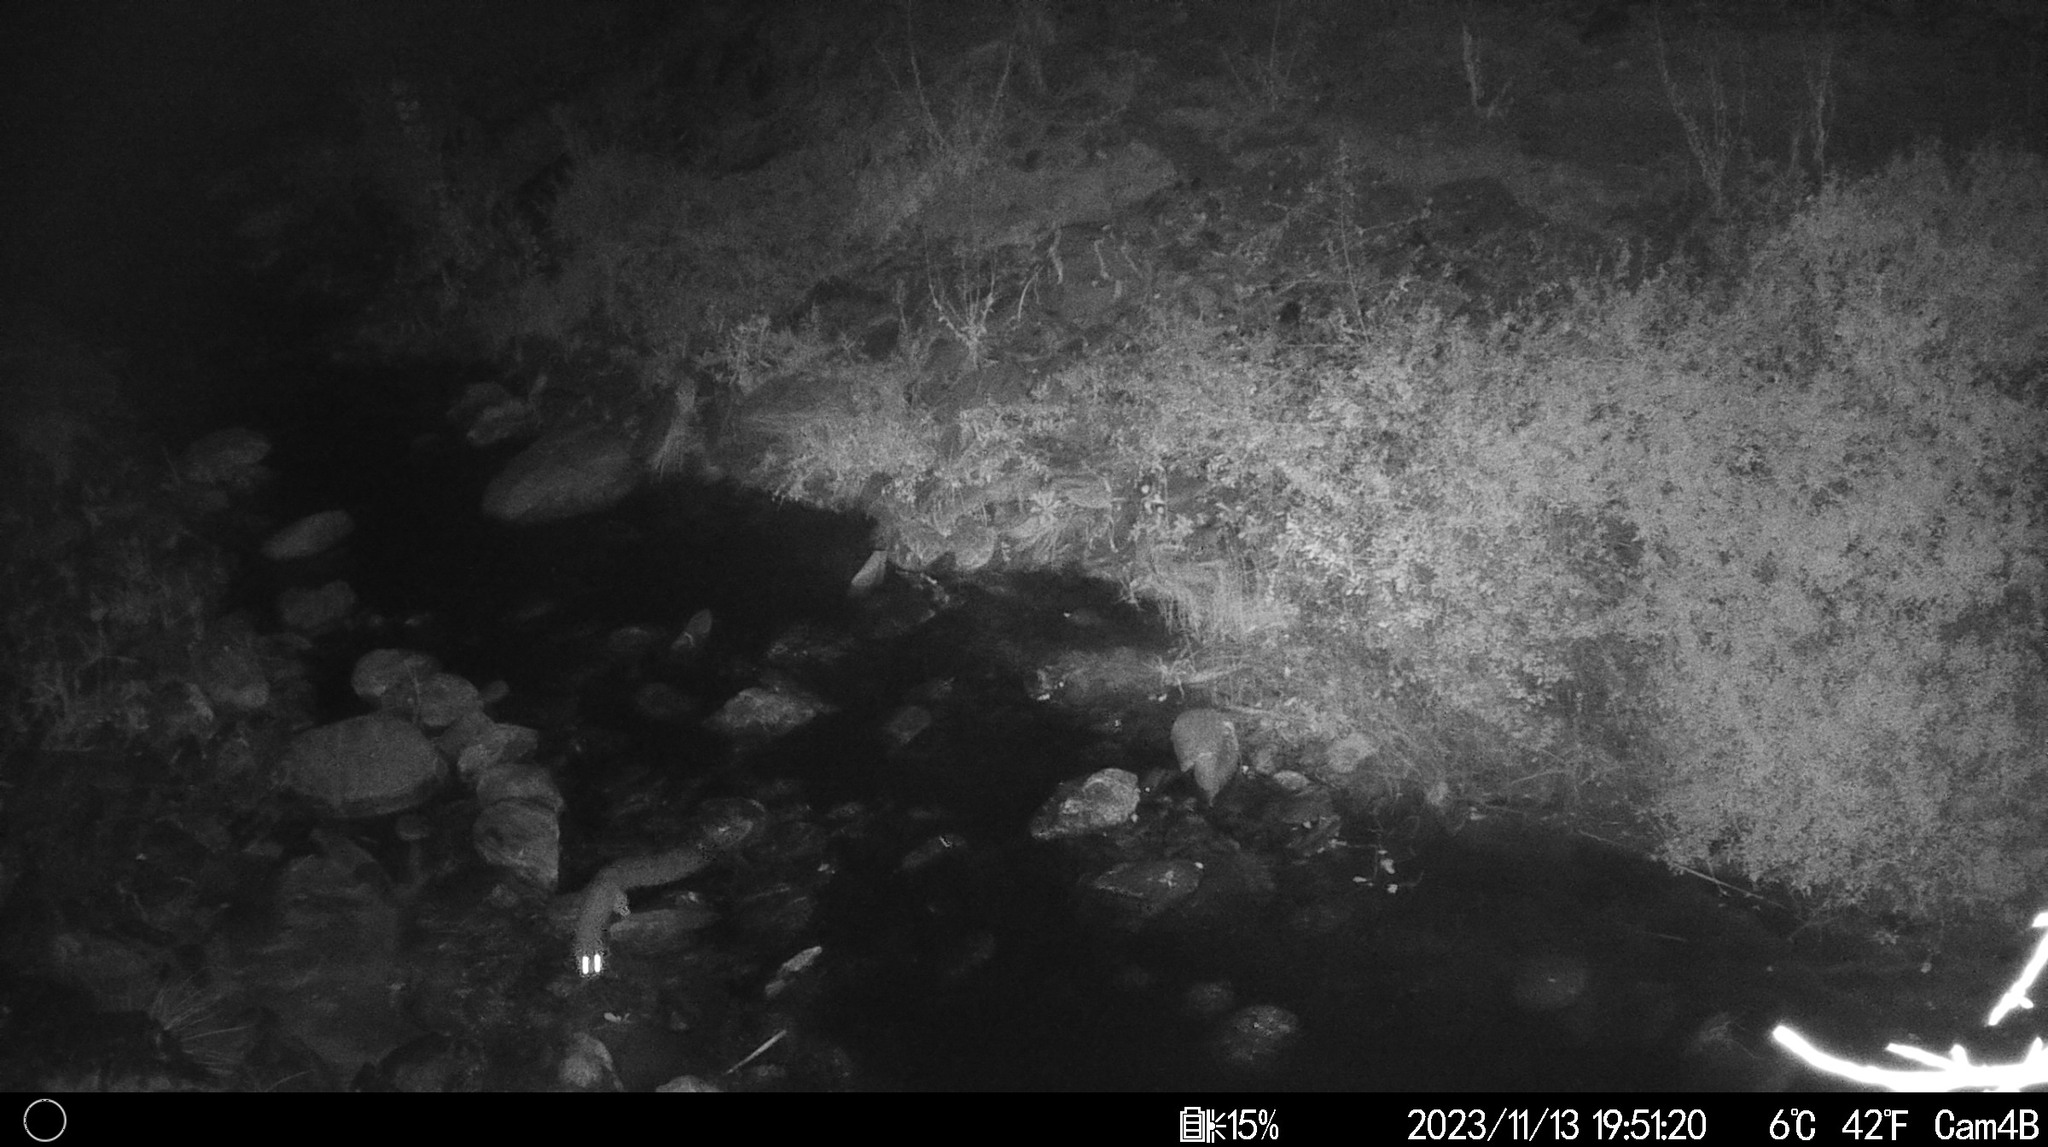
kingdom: Animalia
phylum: Chordata
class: Mammalia
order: Carnivora
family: Procyonidae
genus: Bassariscus
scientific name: Bassariscus astutus
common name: Ringtail
